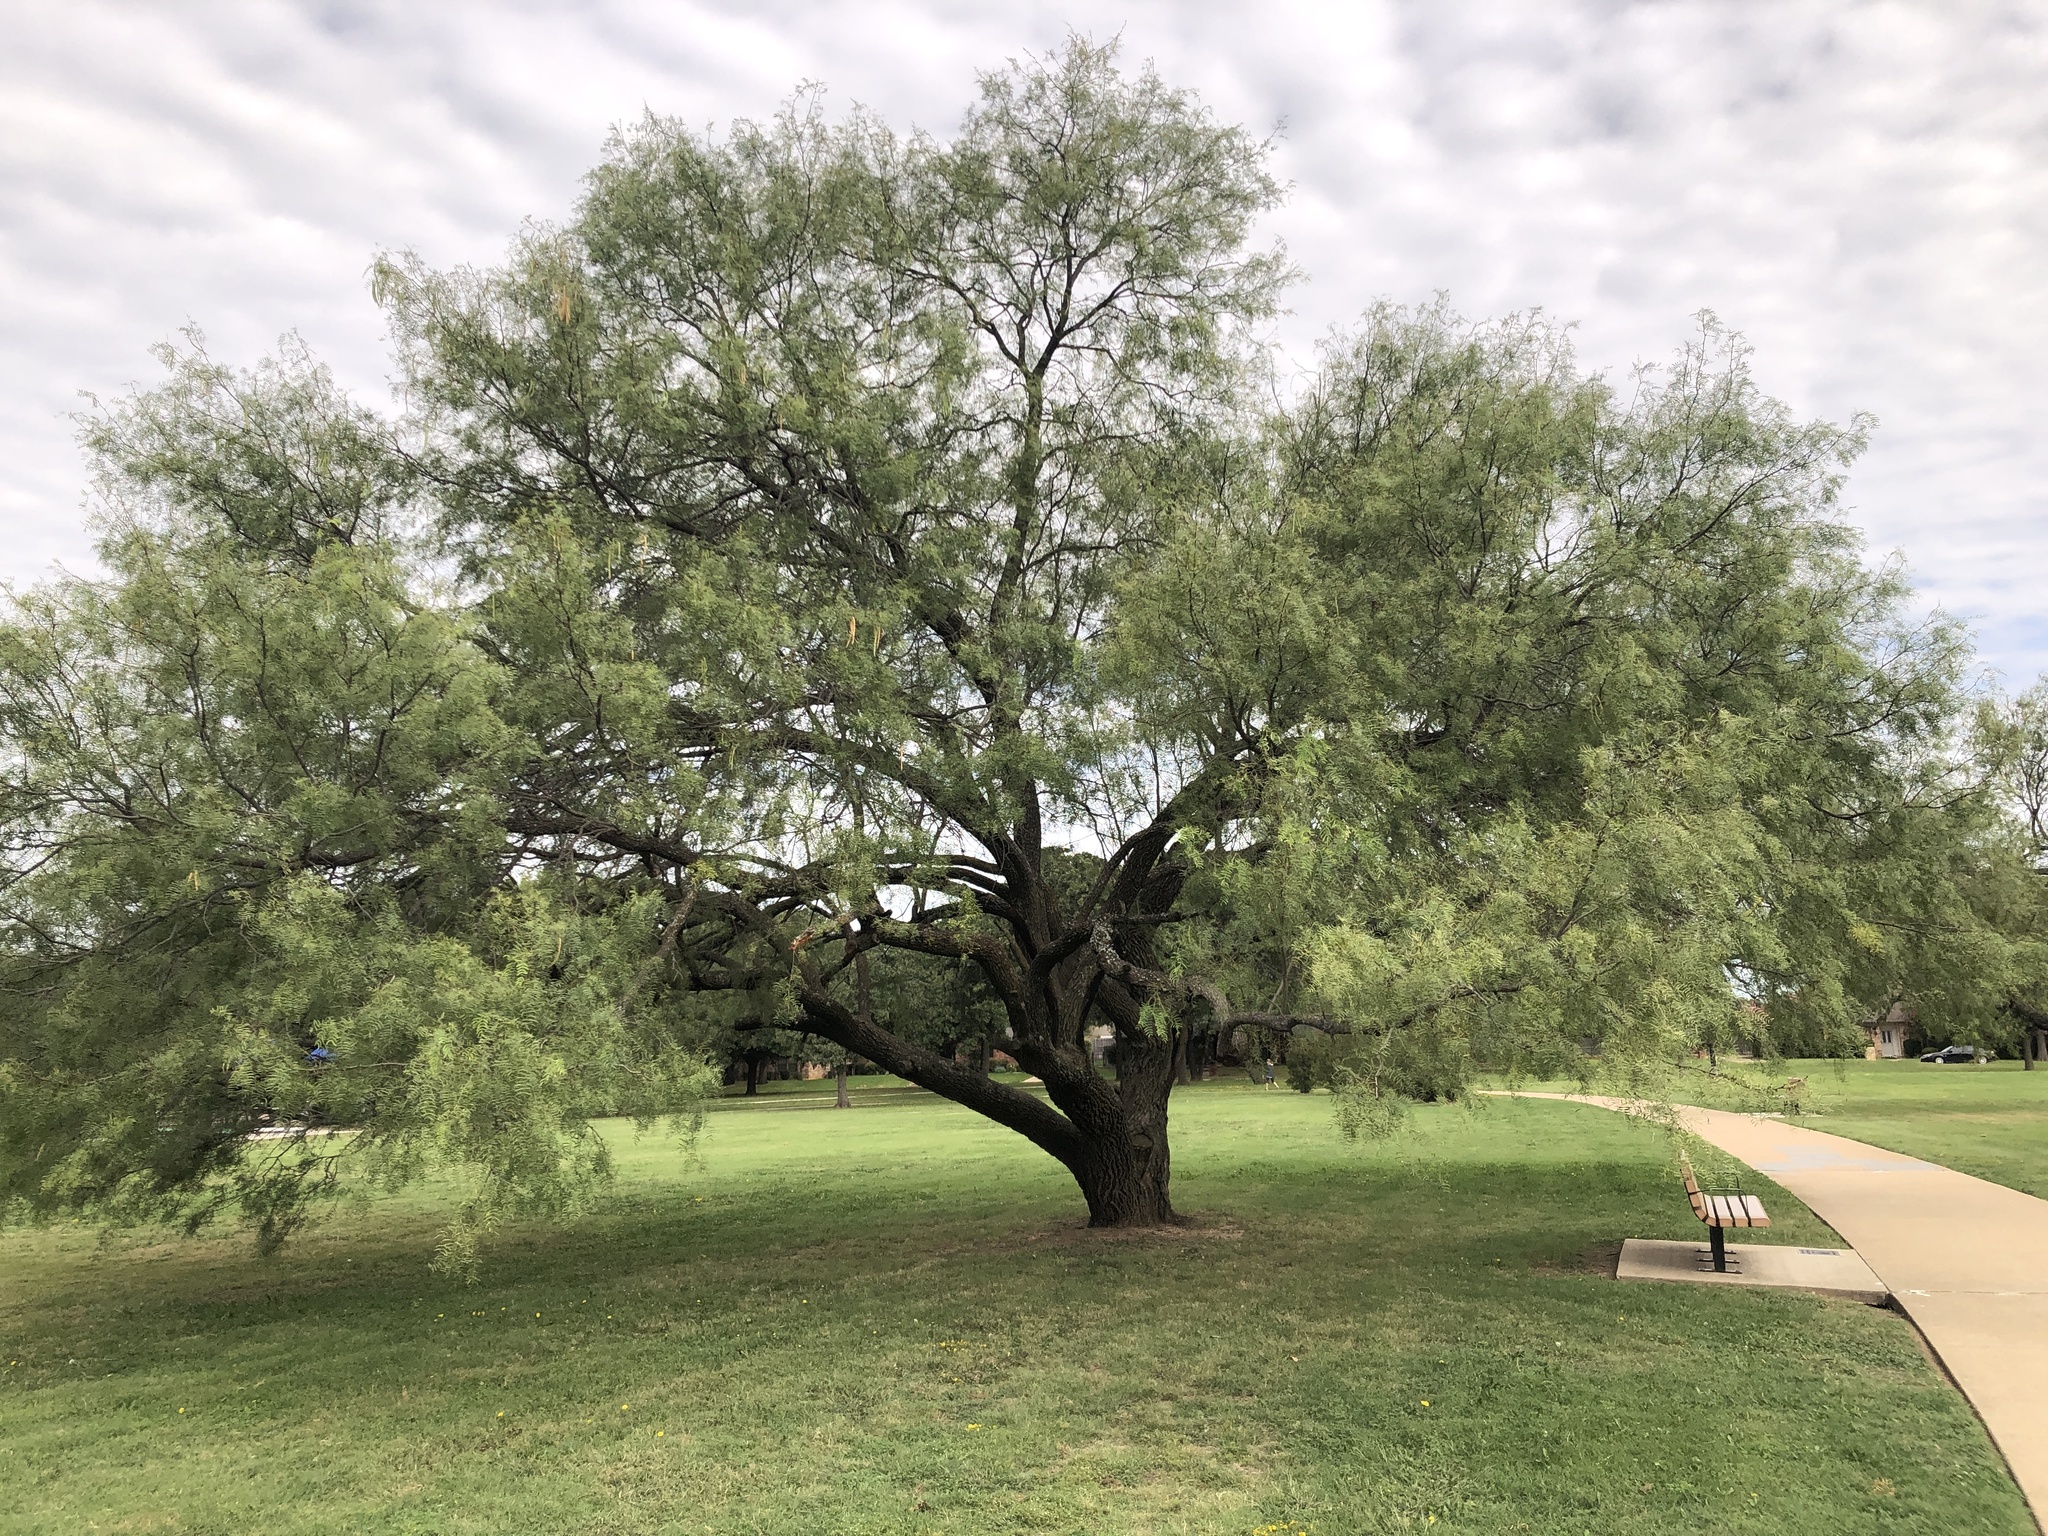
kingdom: Plantae
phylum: Tracheophyta
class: Magnoliopsida
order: Fabales
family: Fabaceae
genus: Prosopis
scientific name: Prosopis glandulosa
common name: Honey mesquite
